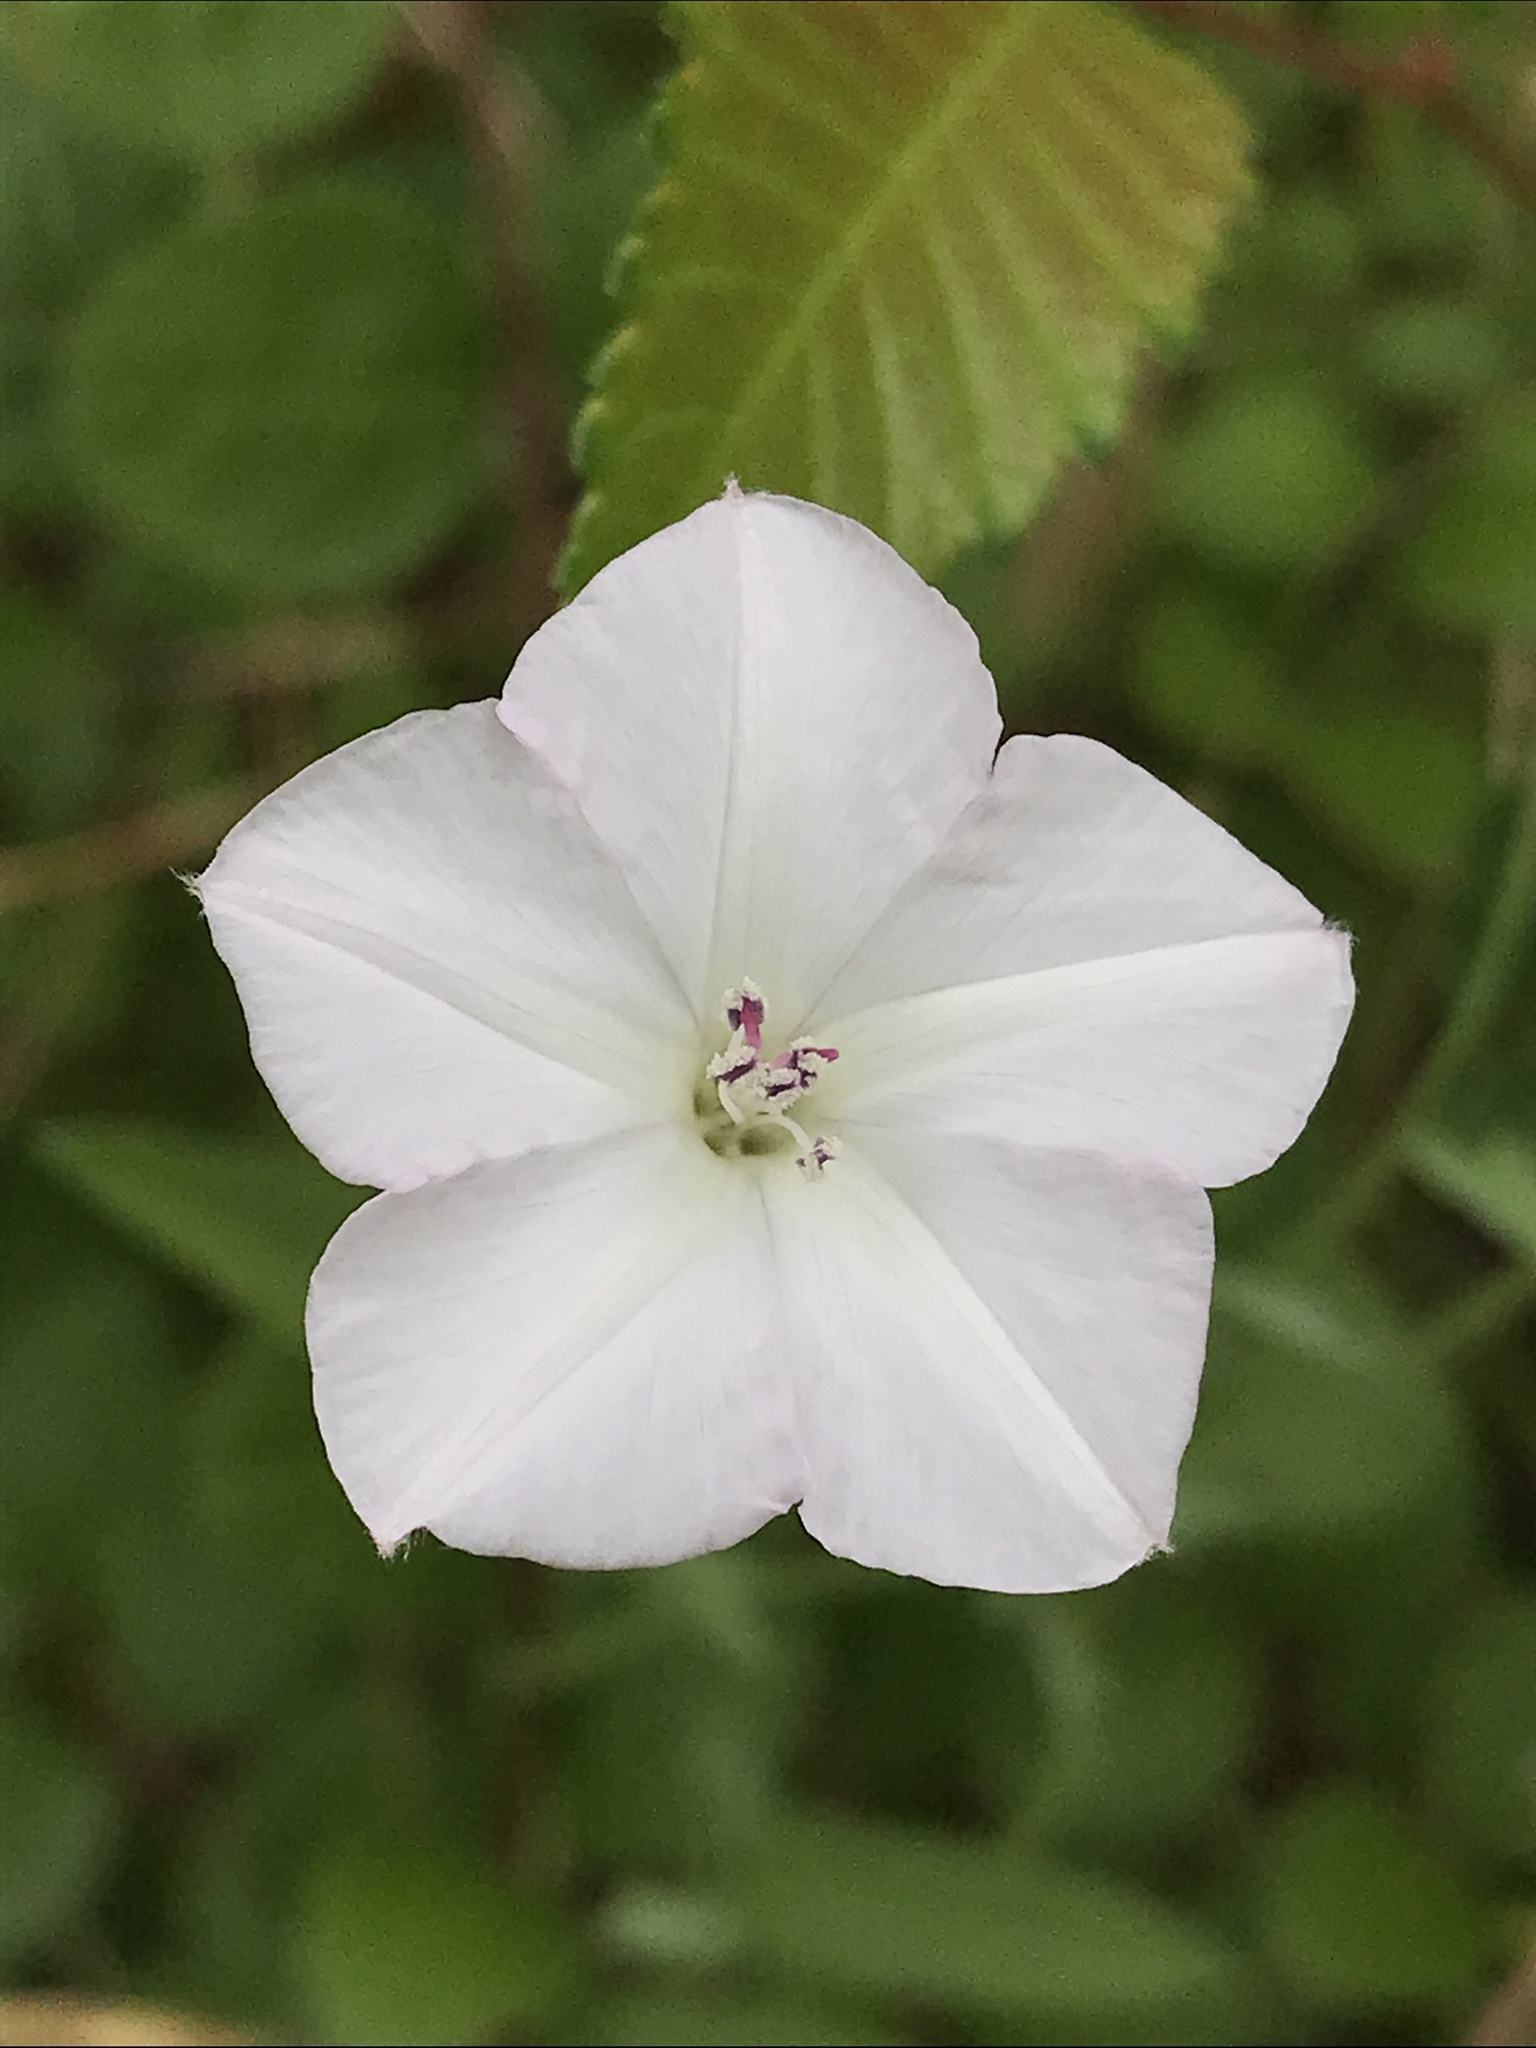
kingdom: Plantae
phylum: Tracheophyta
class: Magnoliopsida
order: Solanales
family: Convolvulaceae
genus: Convolvulus
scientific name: Convolvulus equitans
